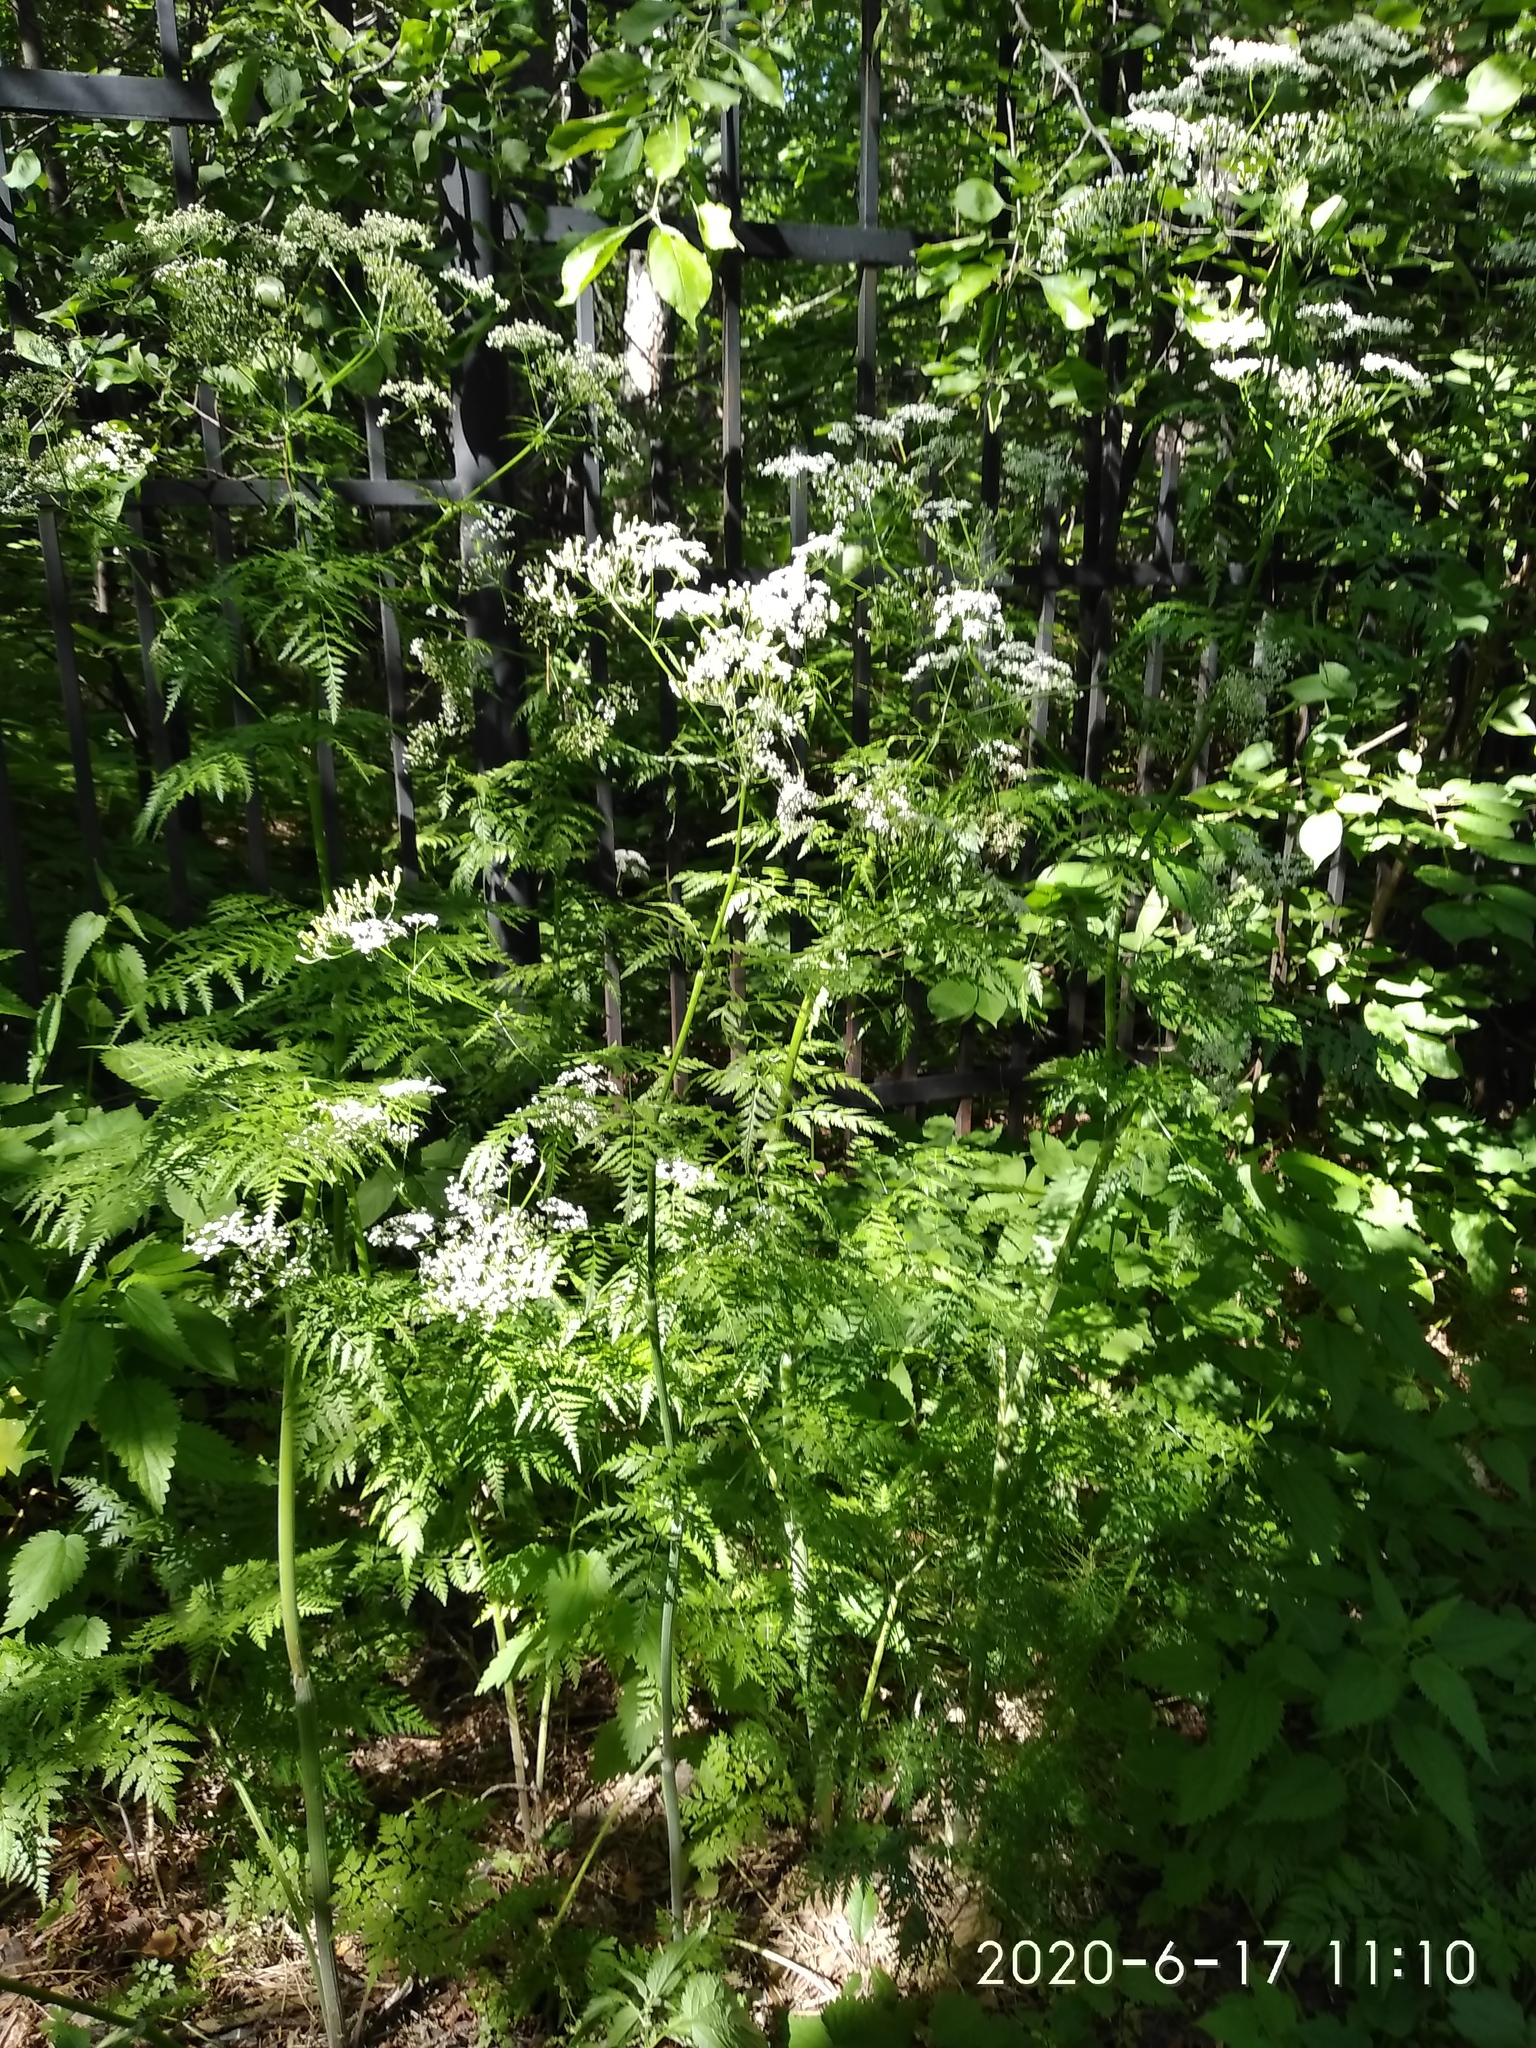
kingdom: Plantae
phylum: Tracheophyta
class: Magnoliopsida
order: Apiales
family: Apiaceae
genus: Anthriscus
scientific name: Anthriscus sylvestris
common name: Cow parsley
